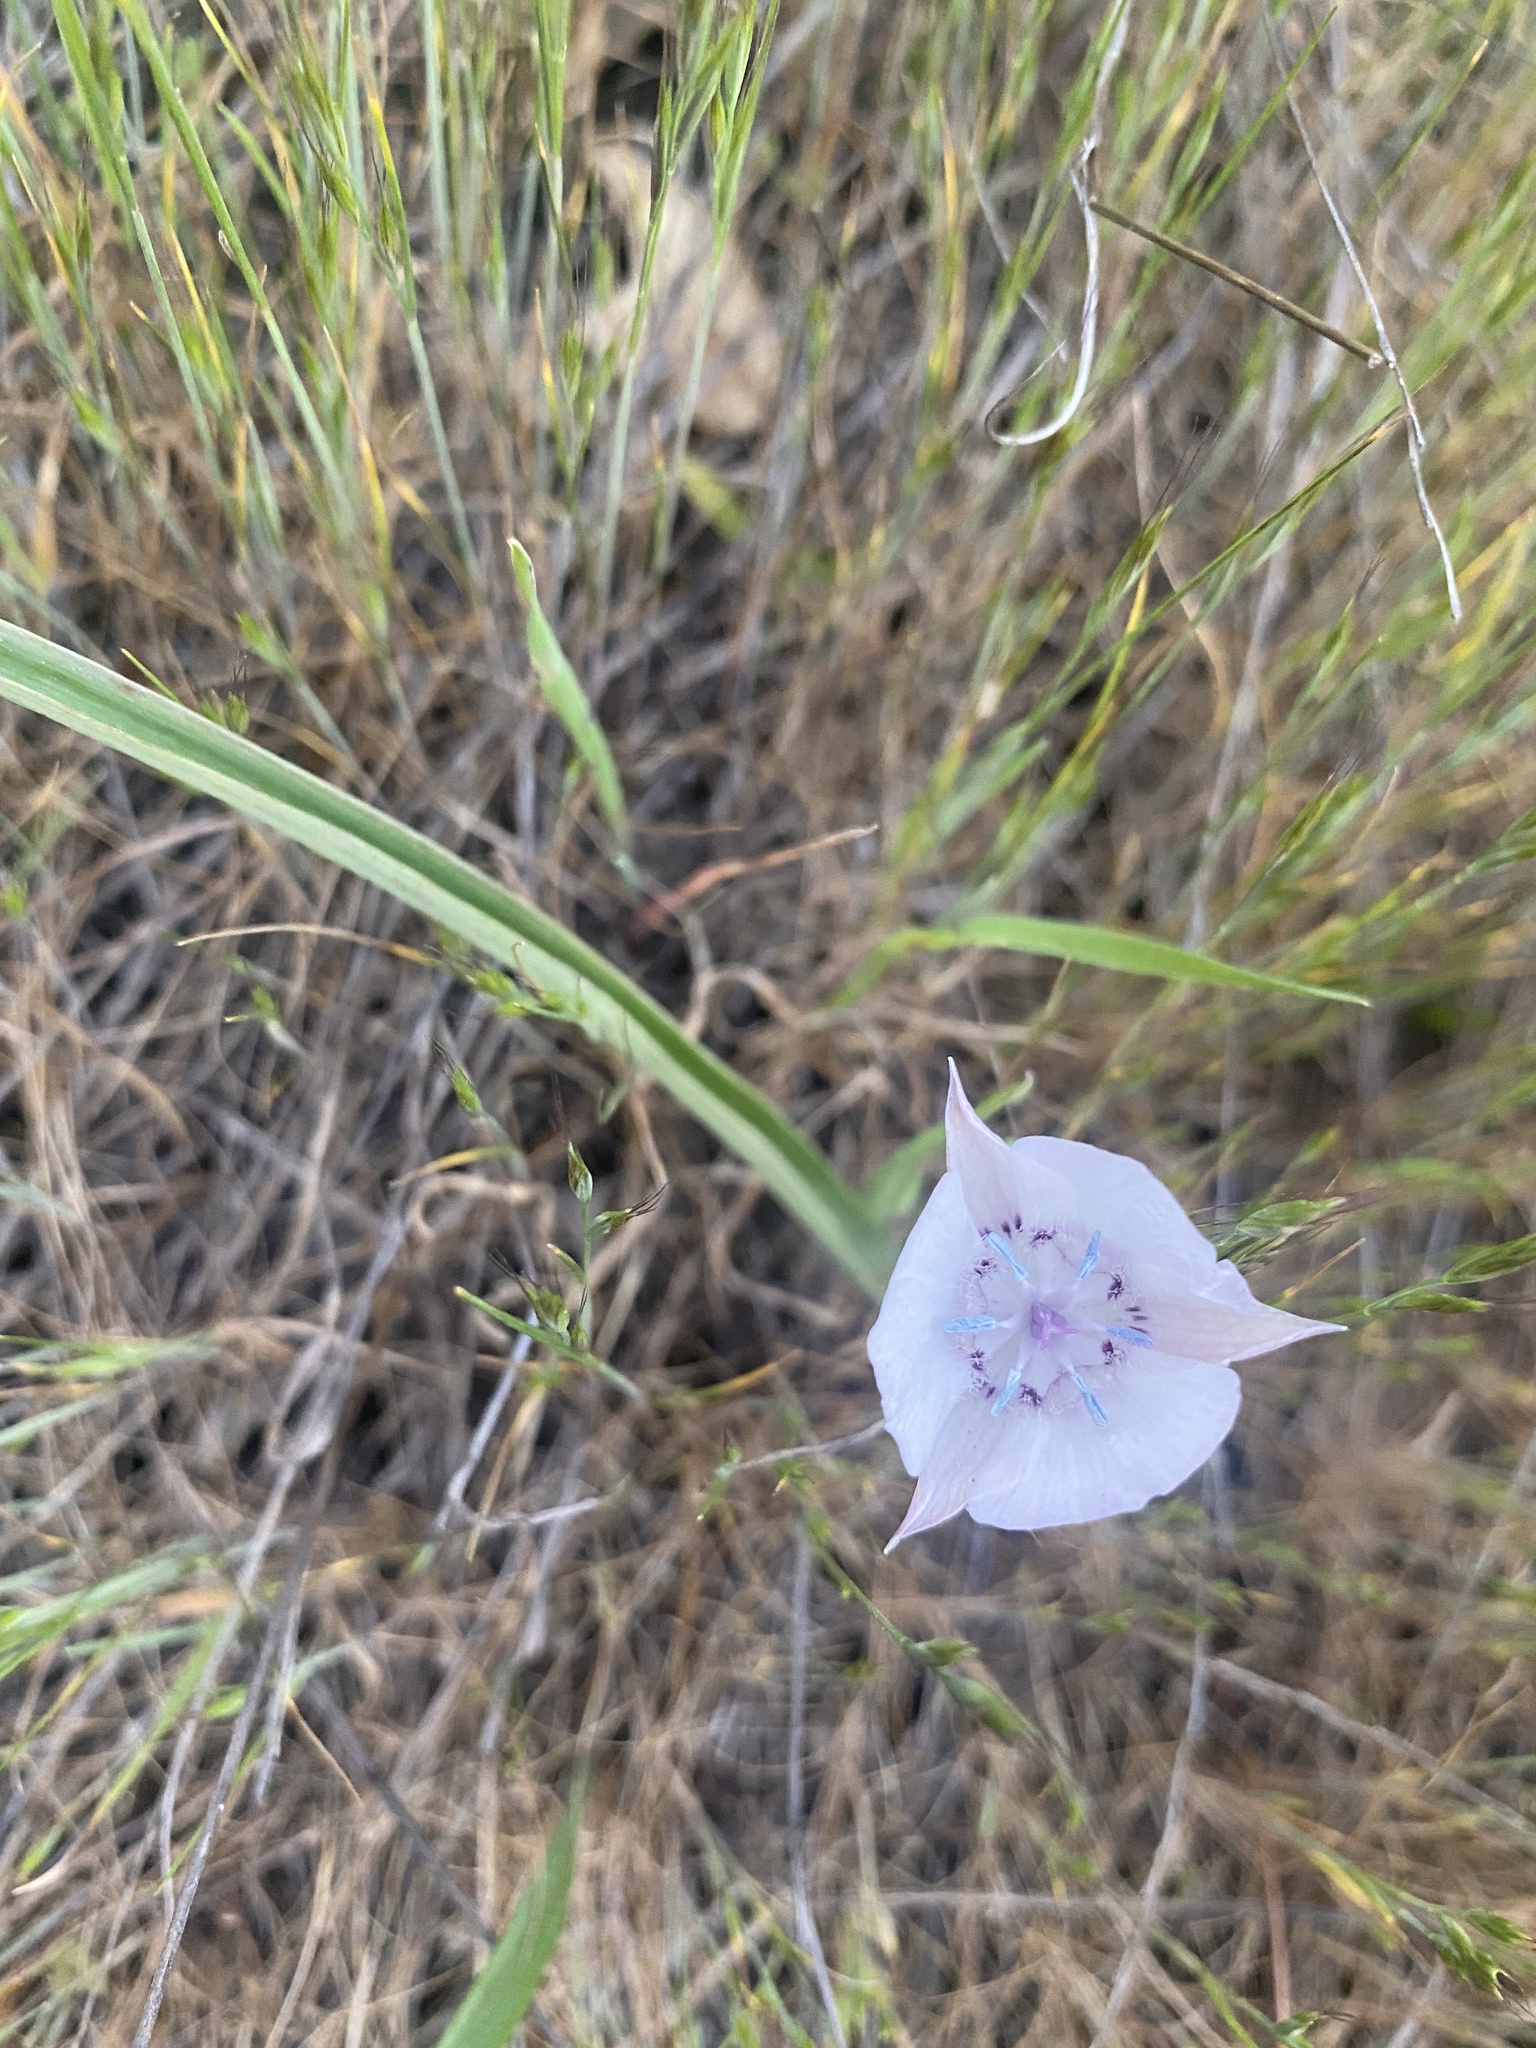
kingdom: Plantae
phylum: Tracheophyta
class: Liliopsida
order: Liliales
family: Liliaceae
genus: Calochortus
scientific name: Calochortus umbellatus
